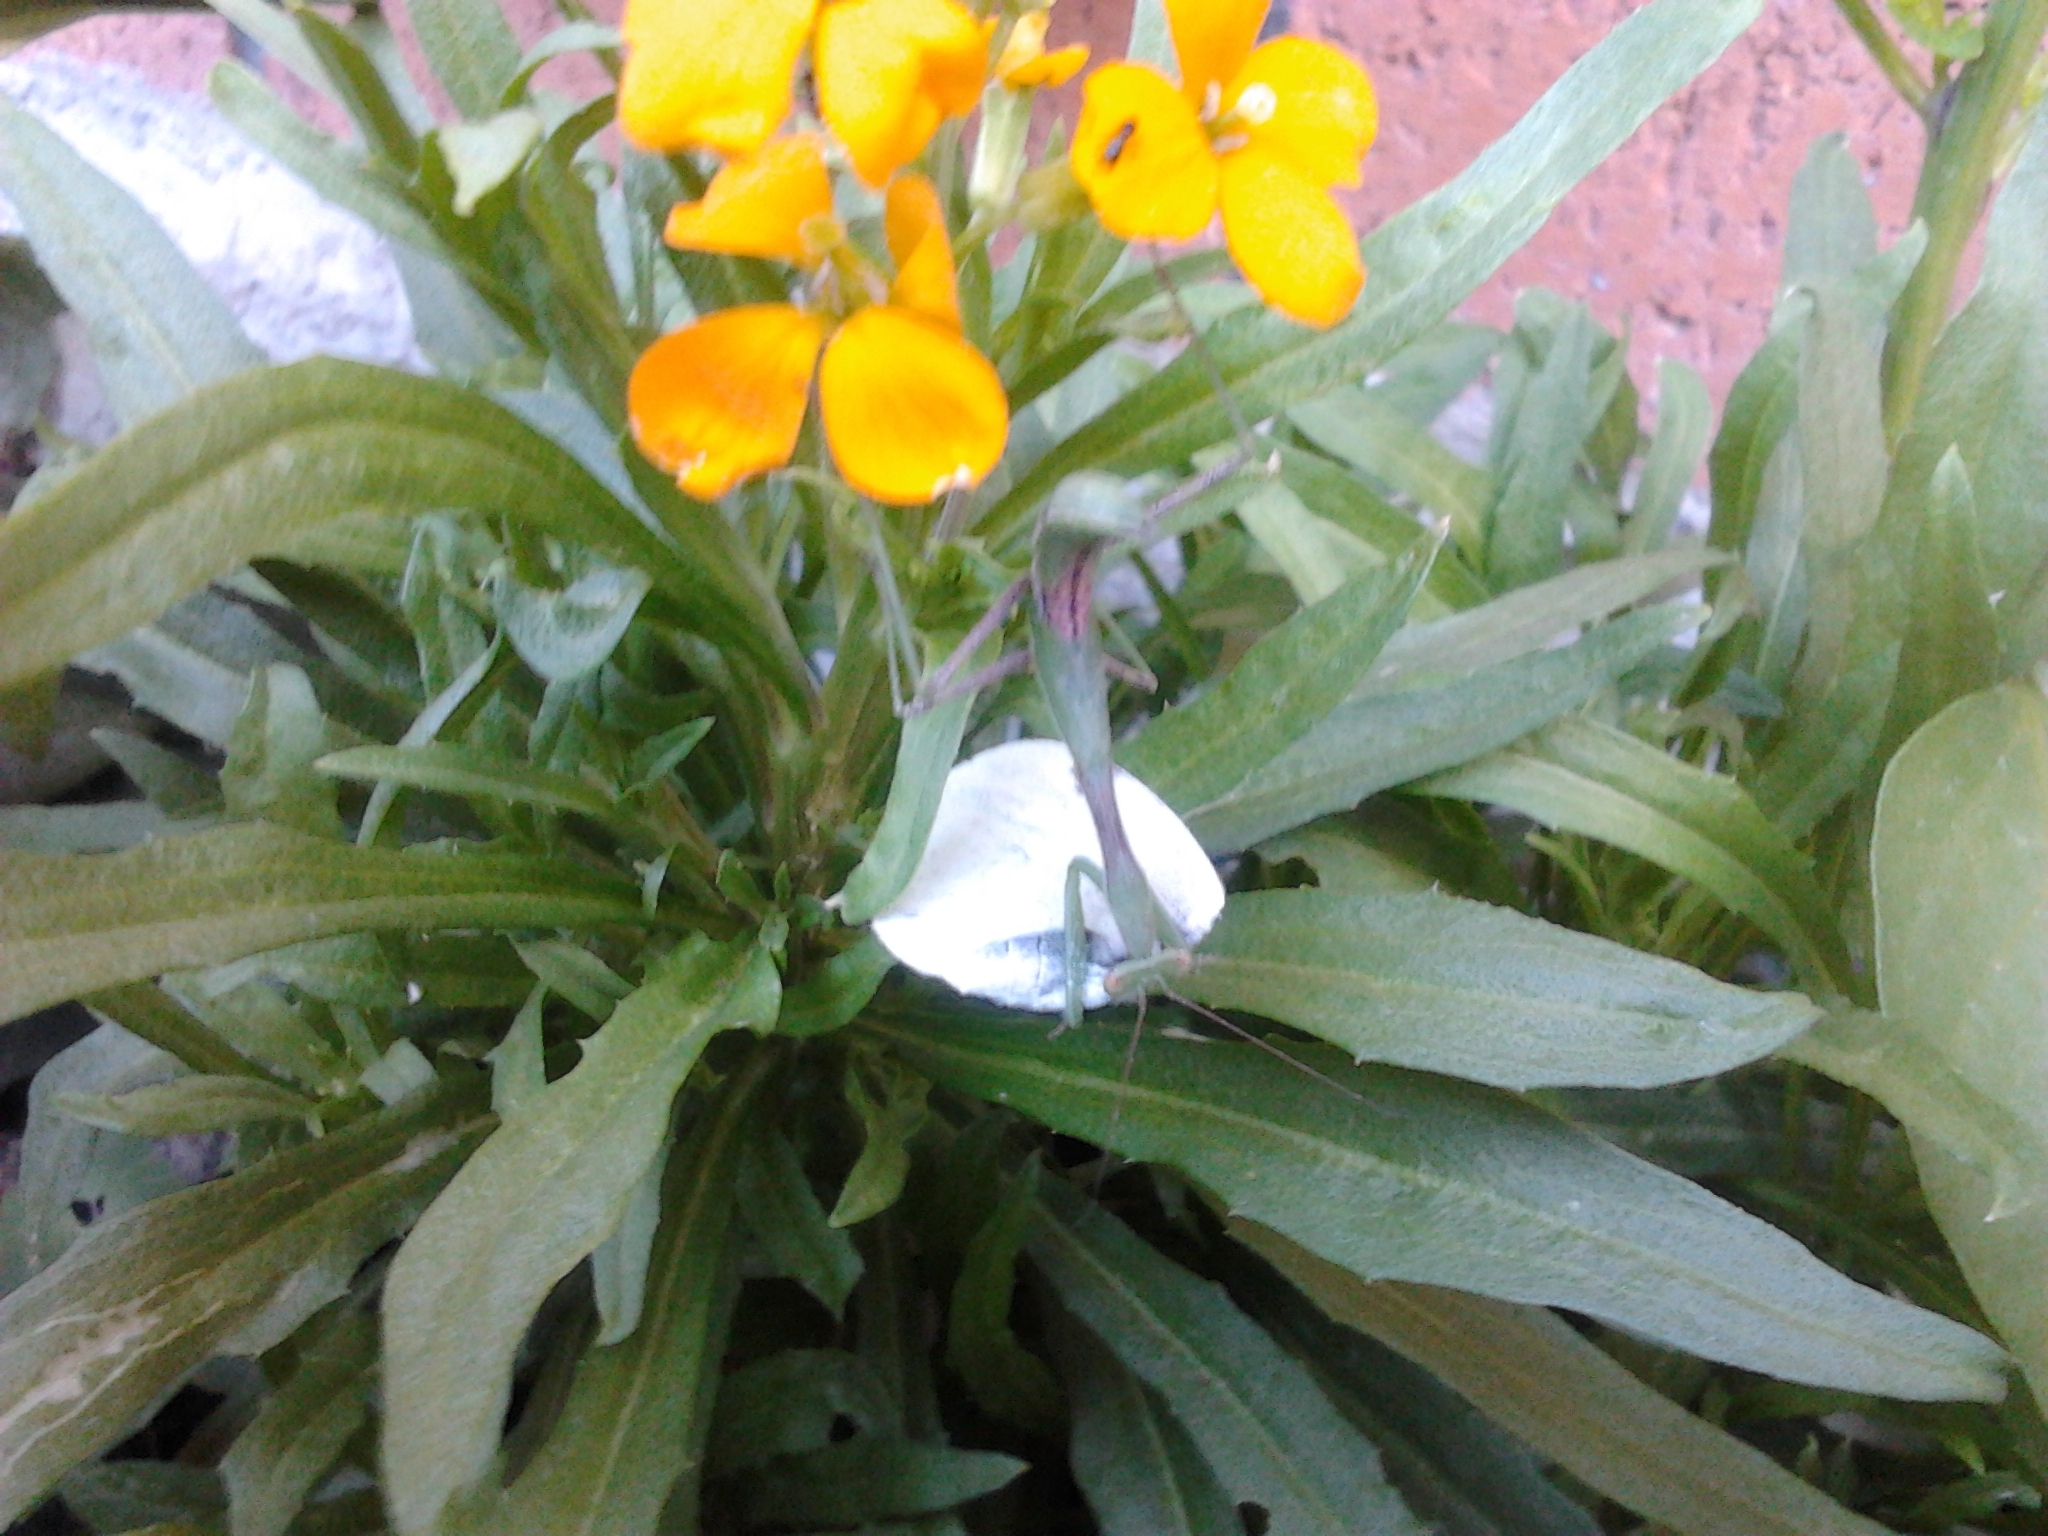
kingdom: Animalia
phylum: Arthropoda
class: Insecta
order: Mantodea
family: Miomantidae
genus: Miomantis
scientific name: Miomantis caffra
